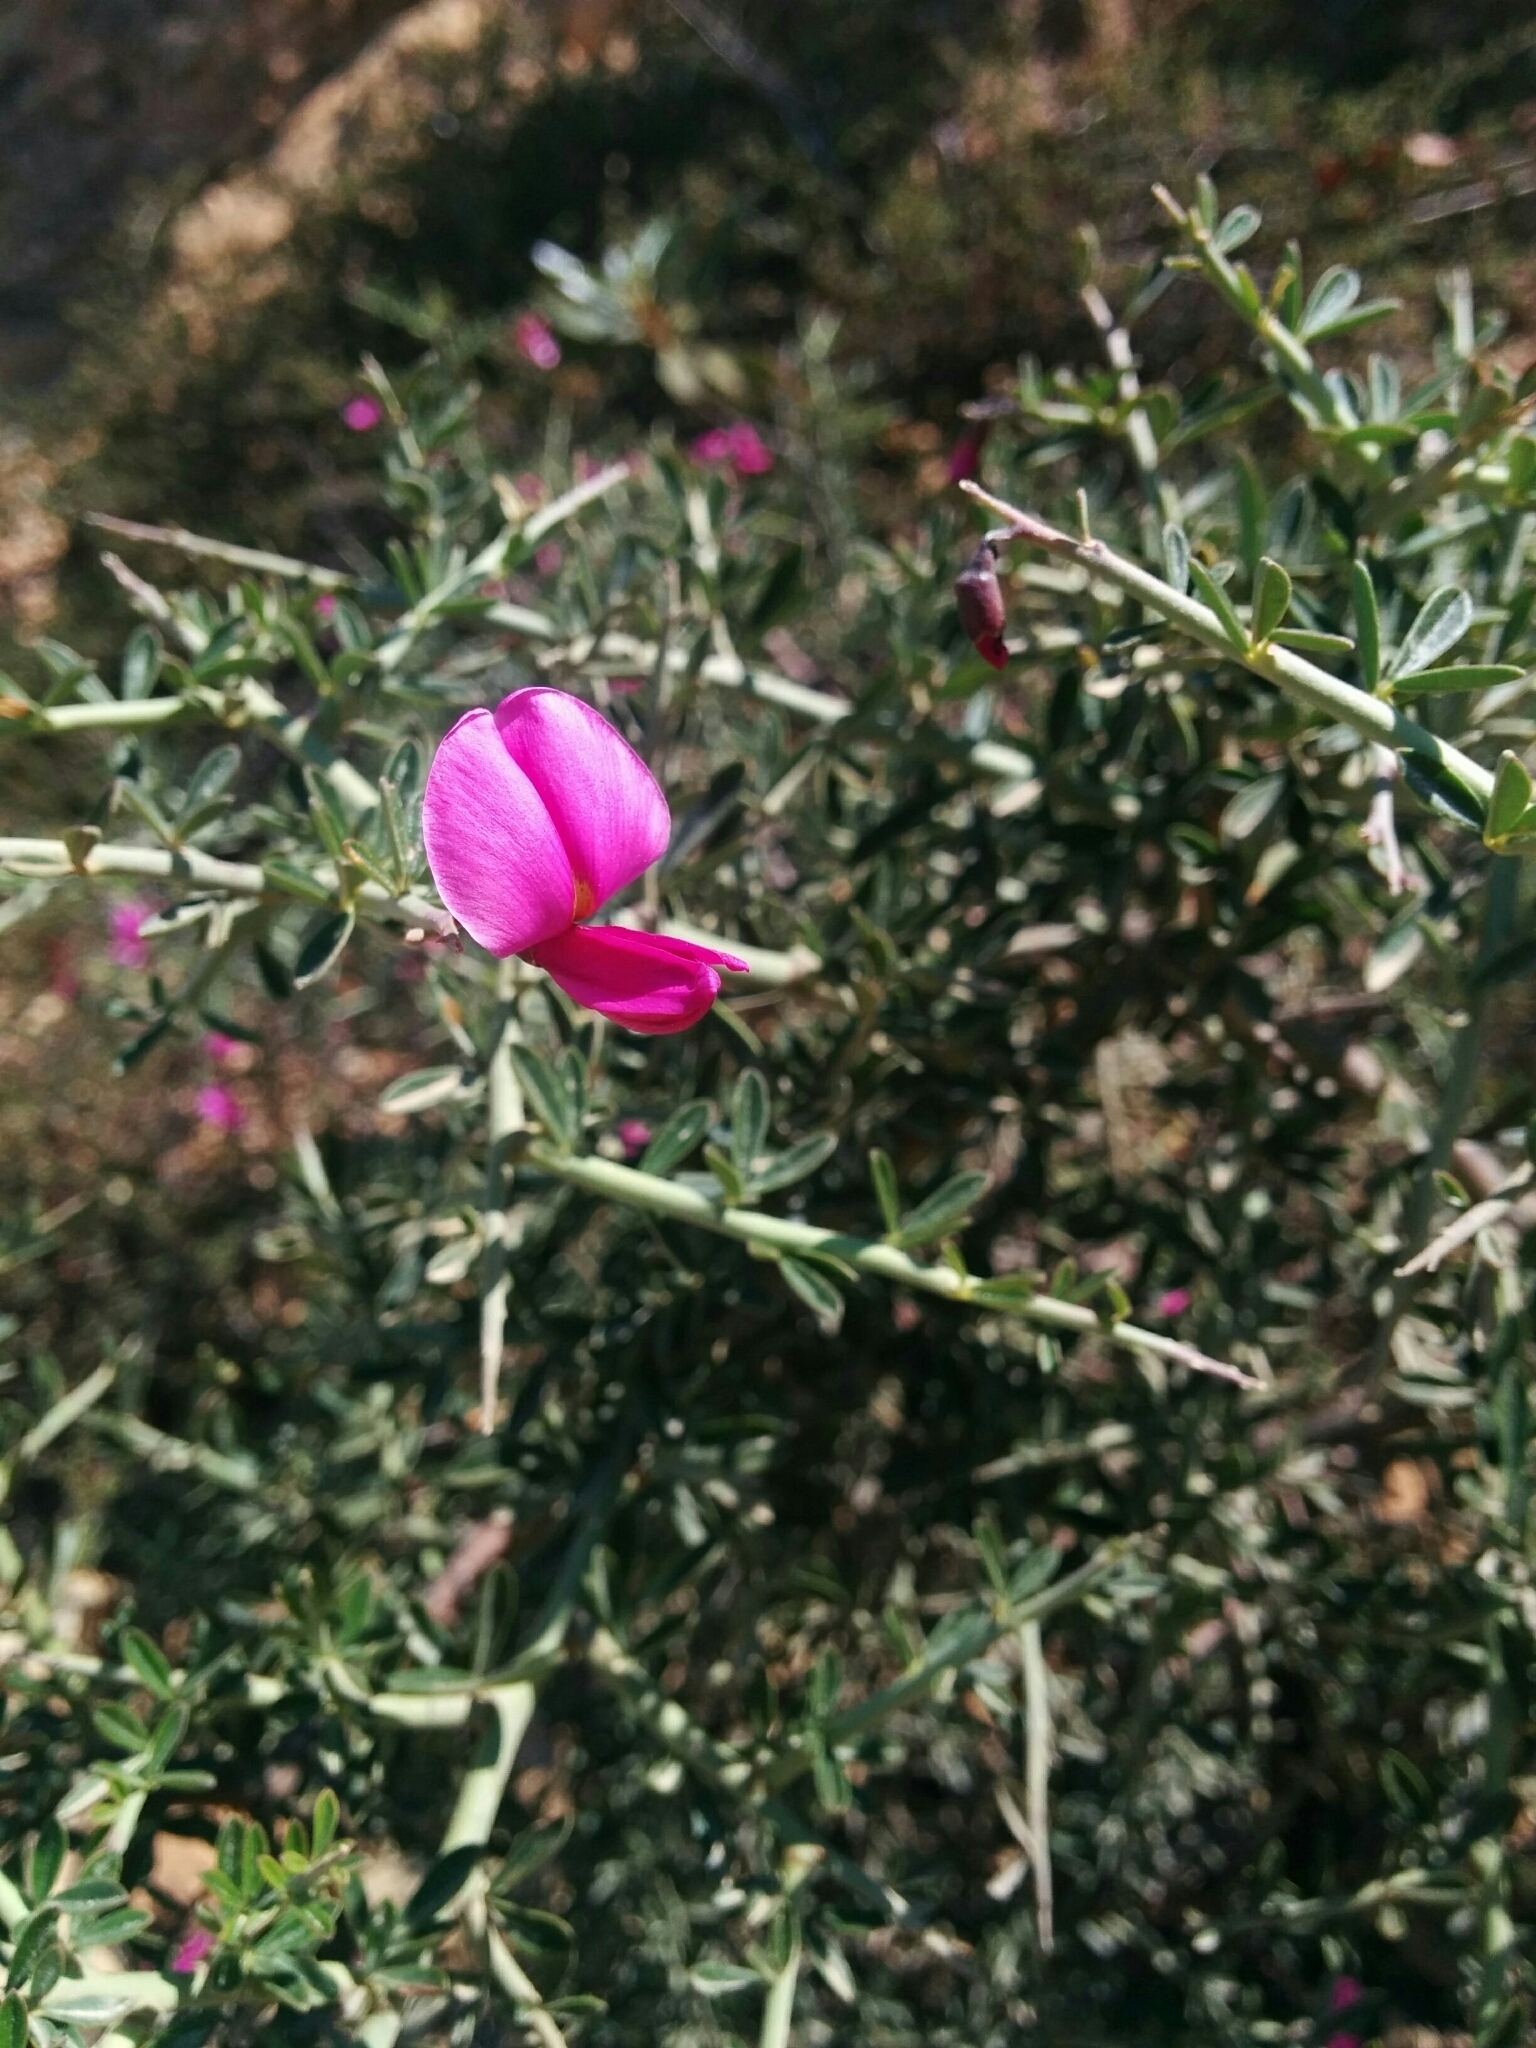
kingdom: Plantae
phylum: Tracheophyta
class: Magnoliopsida
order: Fabales
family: Fabaceae
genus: Pickeringia
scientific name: Pickeringia montana
